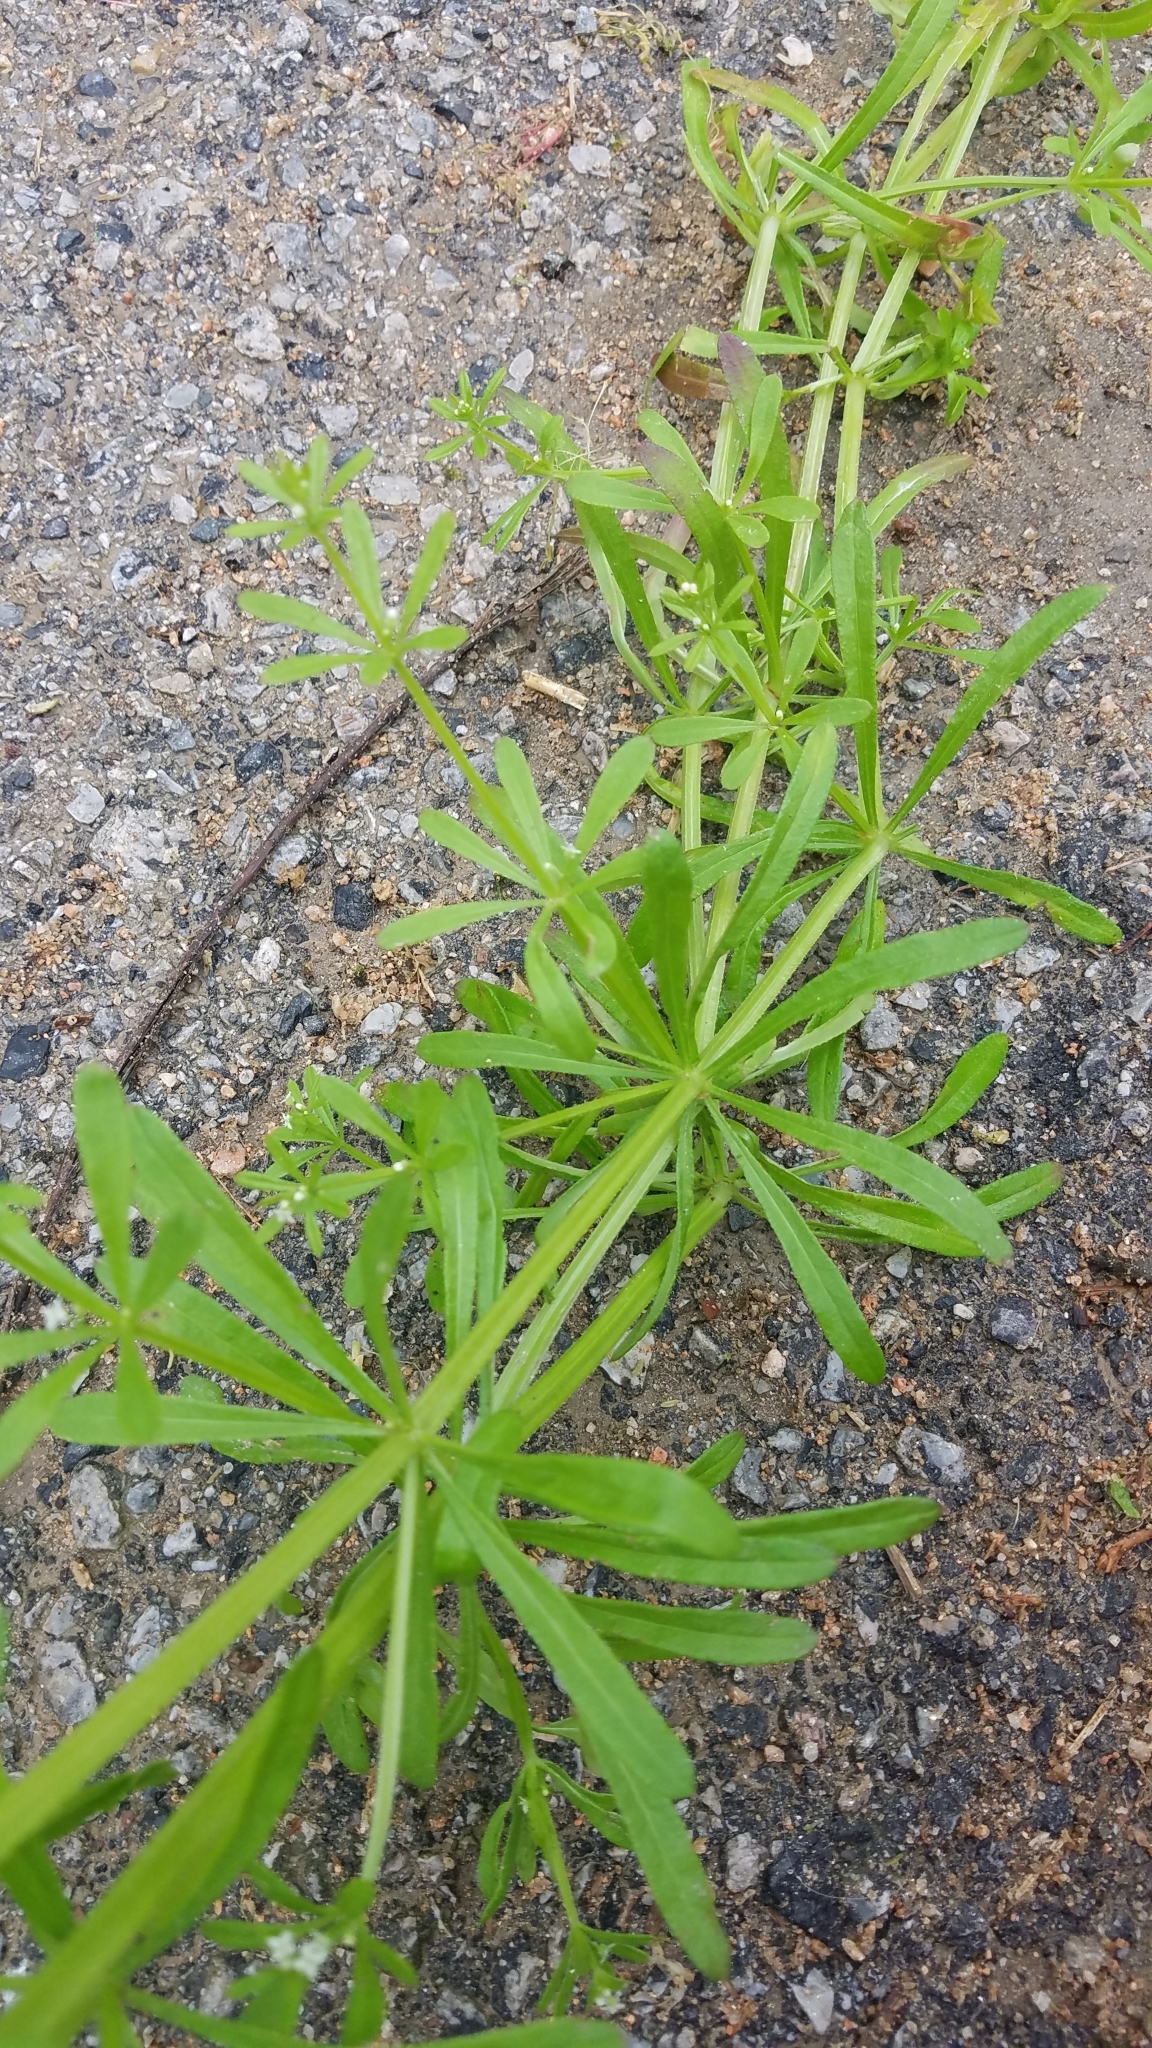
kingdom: Plantae
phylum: Tracheophyta
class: Magnoliopsida
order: Gentianales
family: Rubiaceae
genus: Galium
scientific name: Galium aparine
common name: Cleavers
